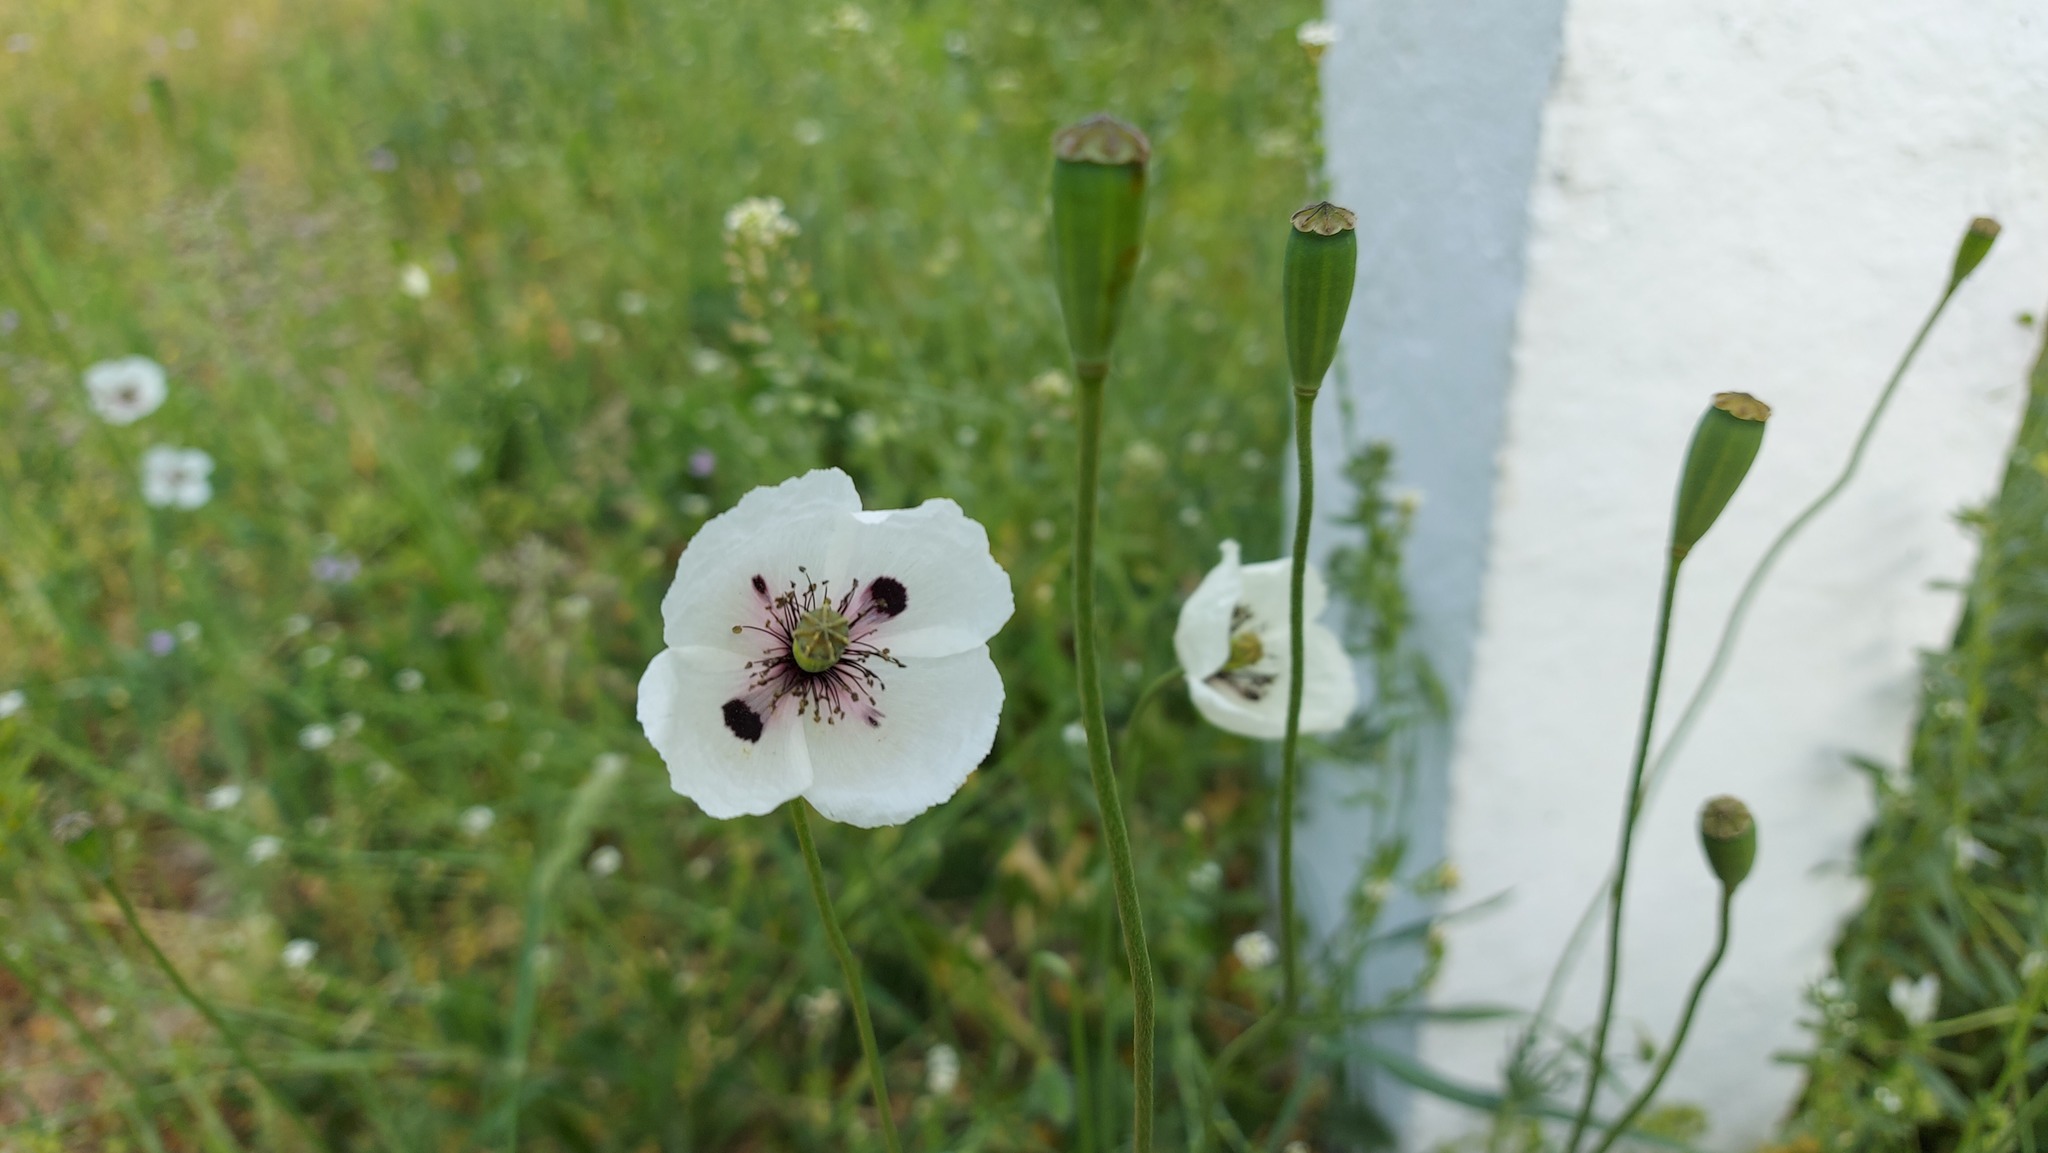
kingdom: Plantae
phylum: Tracheophyta
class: Magnoliopsida
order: Ranunculales
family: Papaveraceae
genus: Papaver
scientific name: Papaver dubium
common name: Long-headed poppy
